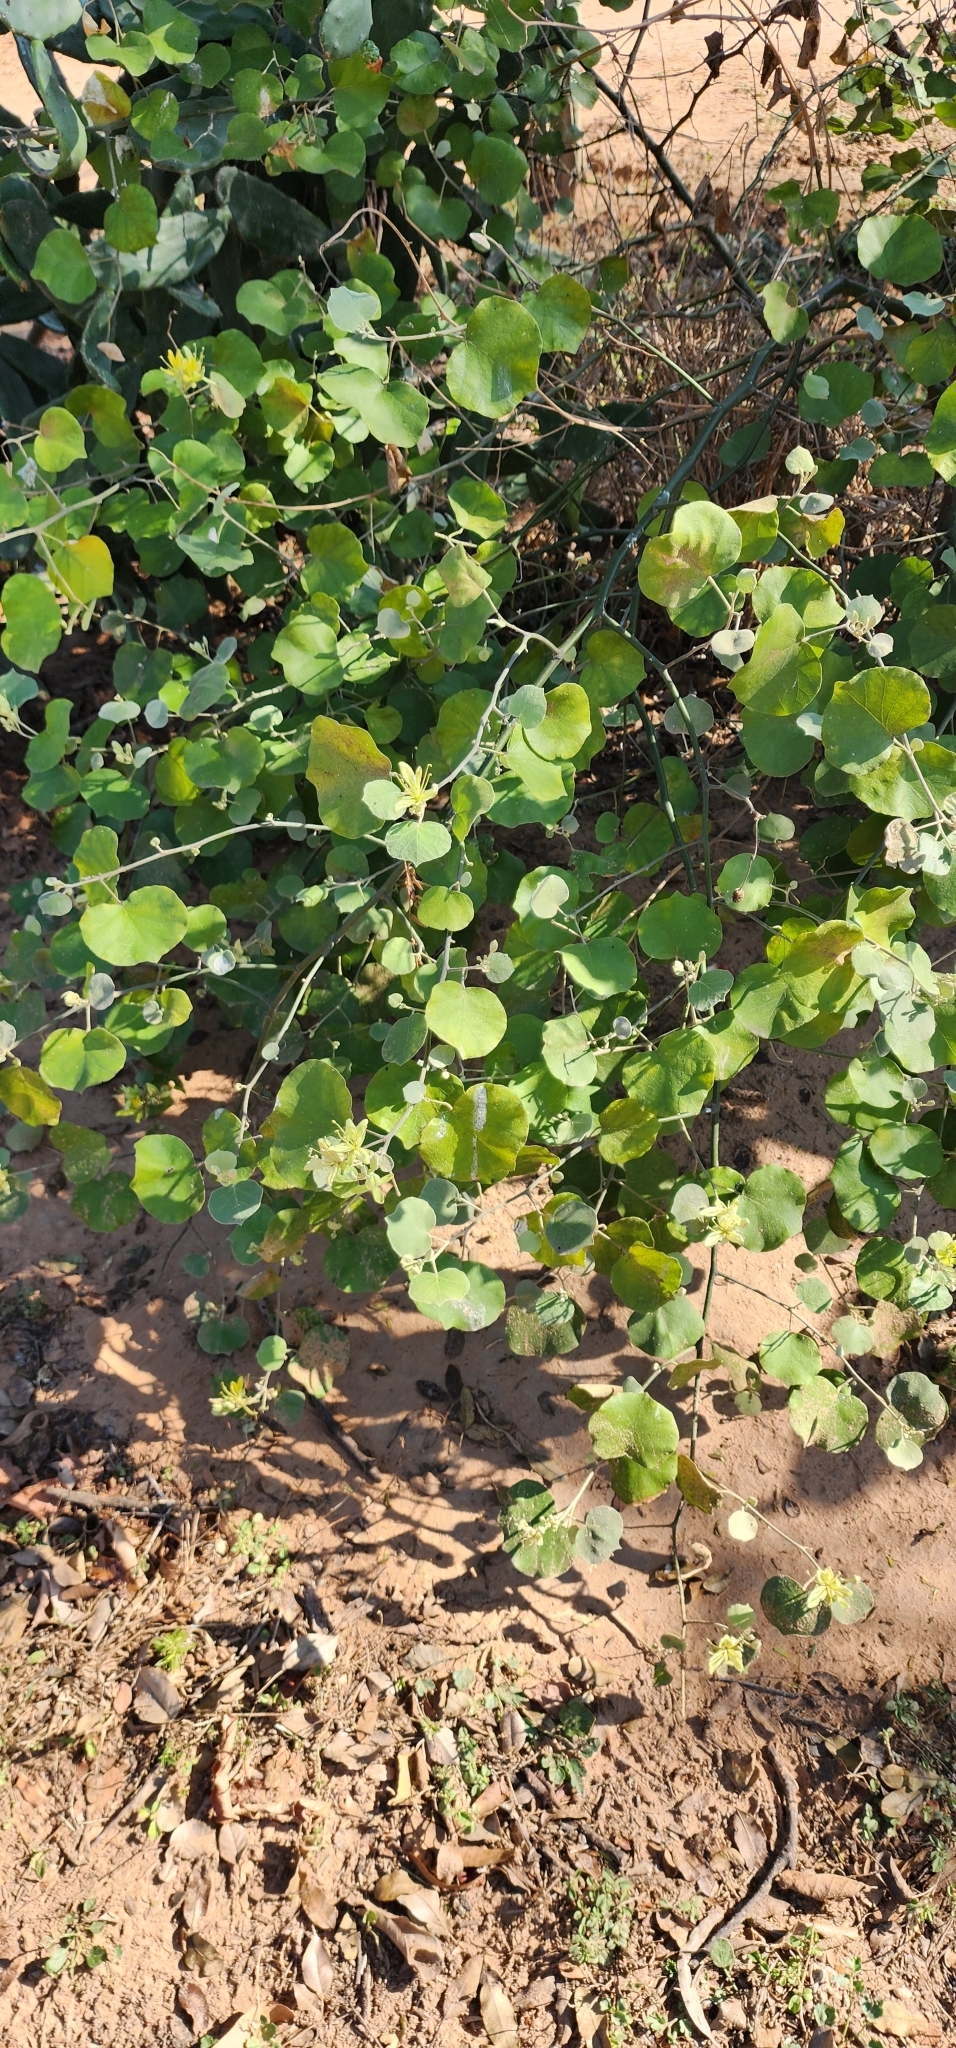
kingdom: Plantae
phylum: Tracheophyta
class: Magnoliopsida
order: Brassicales
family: Capparaceae
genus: Capparicordis
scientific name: Capparicordis tweedieana
